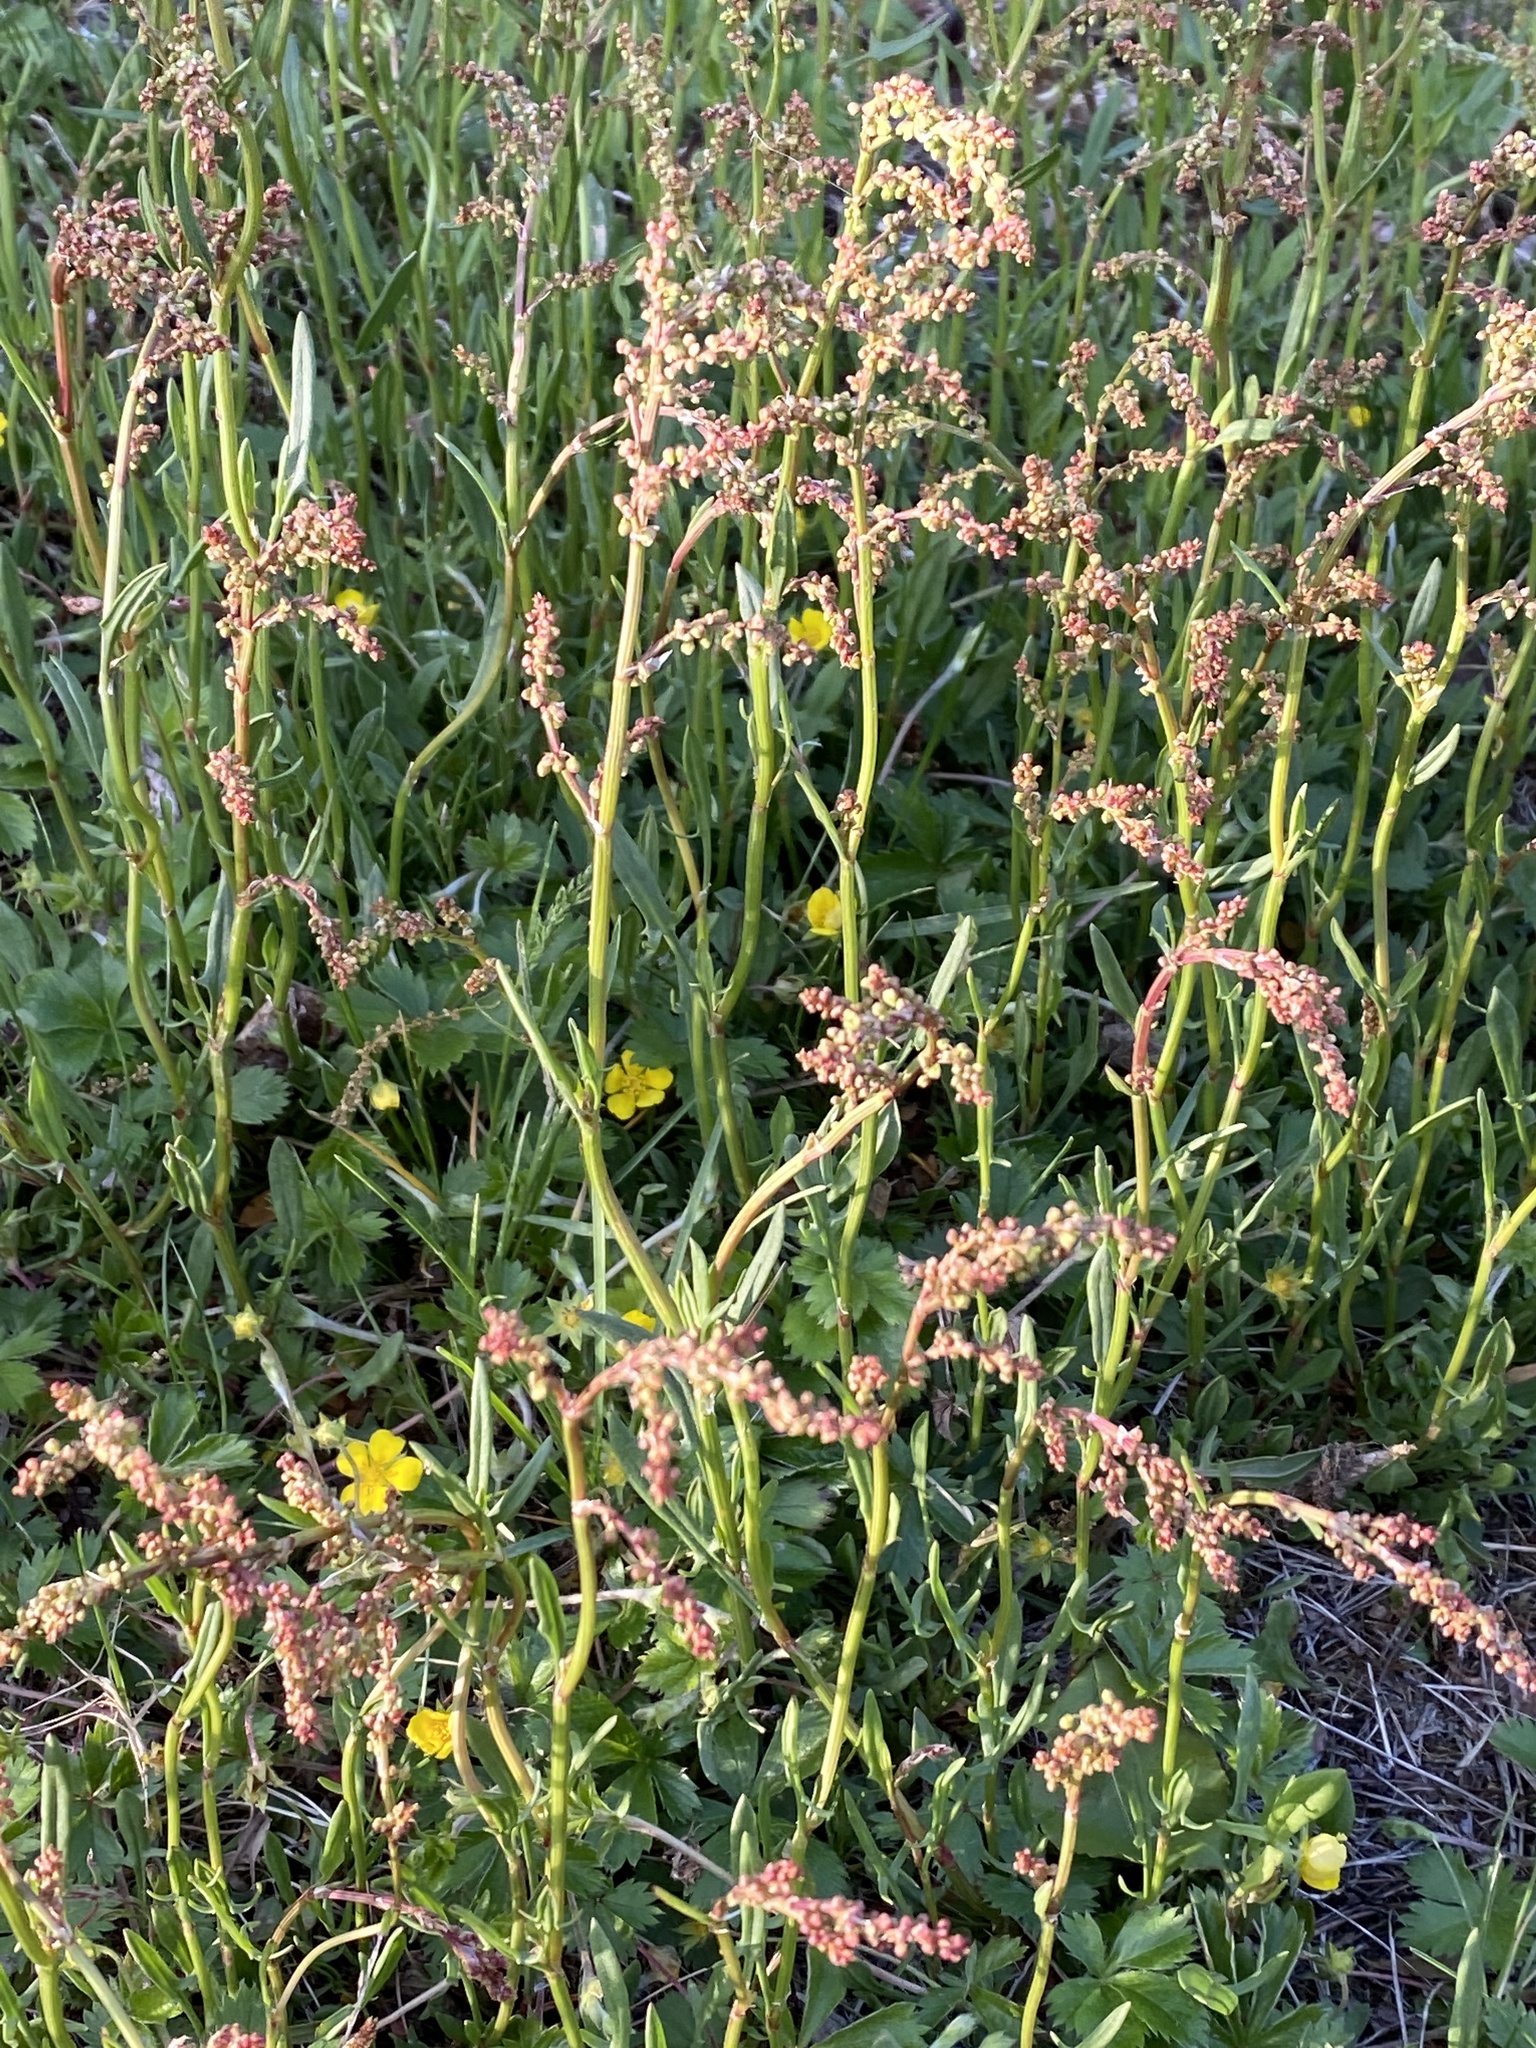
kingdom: Plantae
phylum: Tracheophyta
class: Magnoliopsida
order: Caryophyllales
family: Polygonaceae
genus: Rumex
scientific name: Rumex acetosella
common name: Common sheep sorrel
